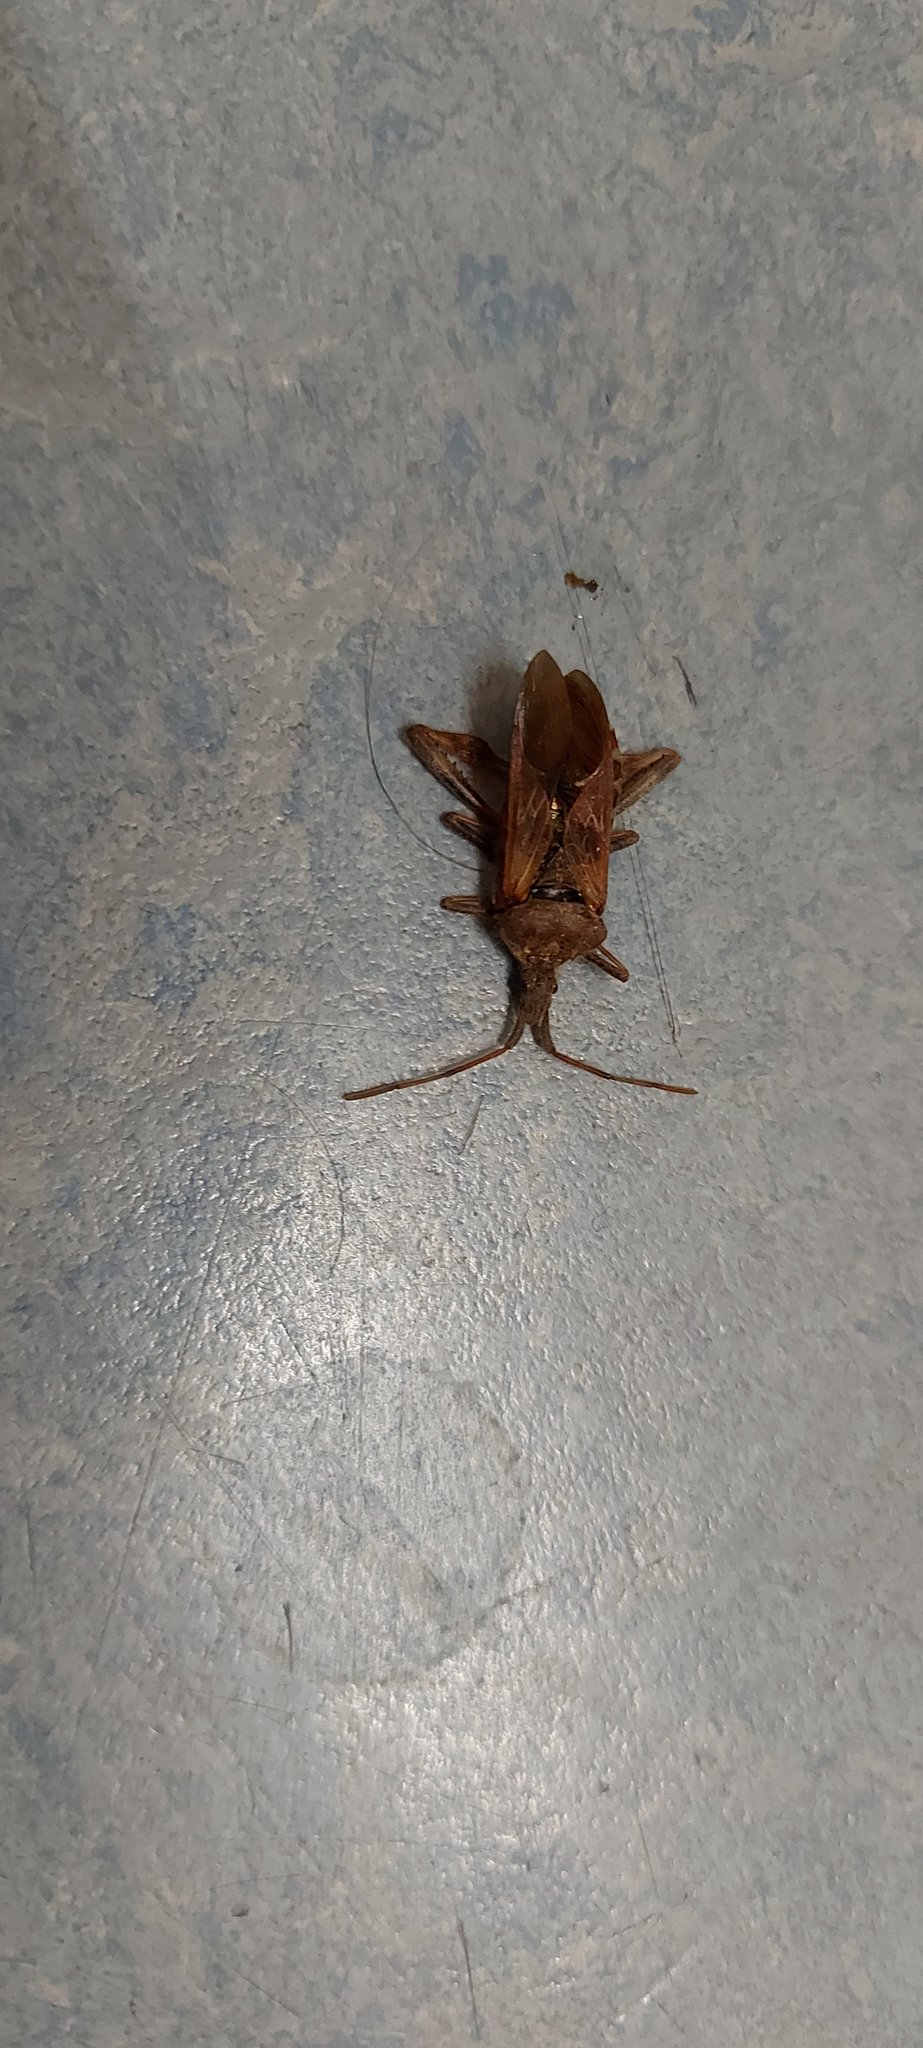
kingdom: Animalia
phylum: Arthropoda
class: Insecta
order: Hemiptera
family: Coreidae
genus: Leptoglossus
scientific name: Leptoglossus occidentalis
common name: Western conifer-seed bug
